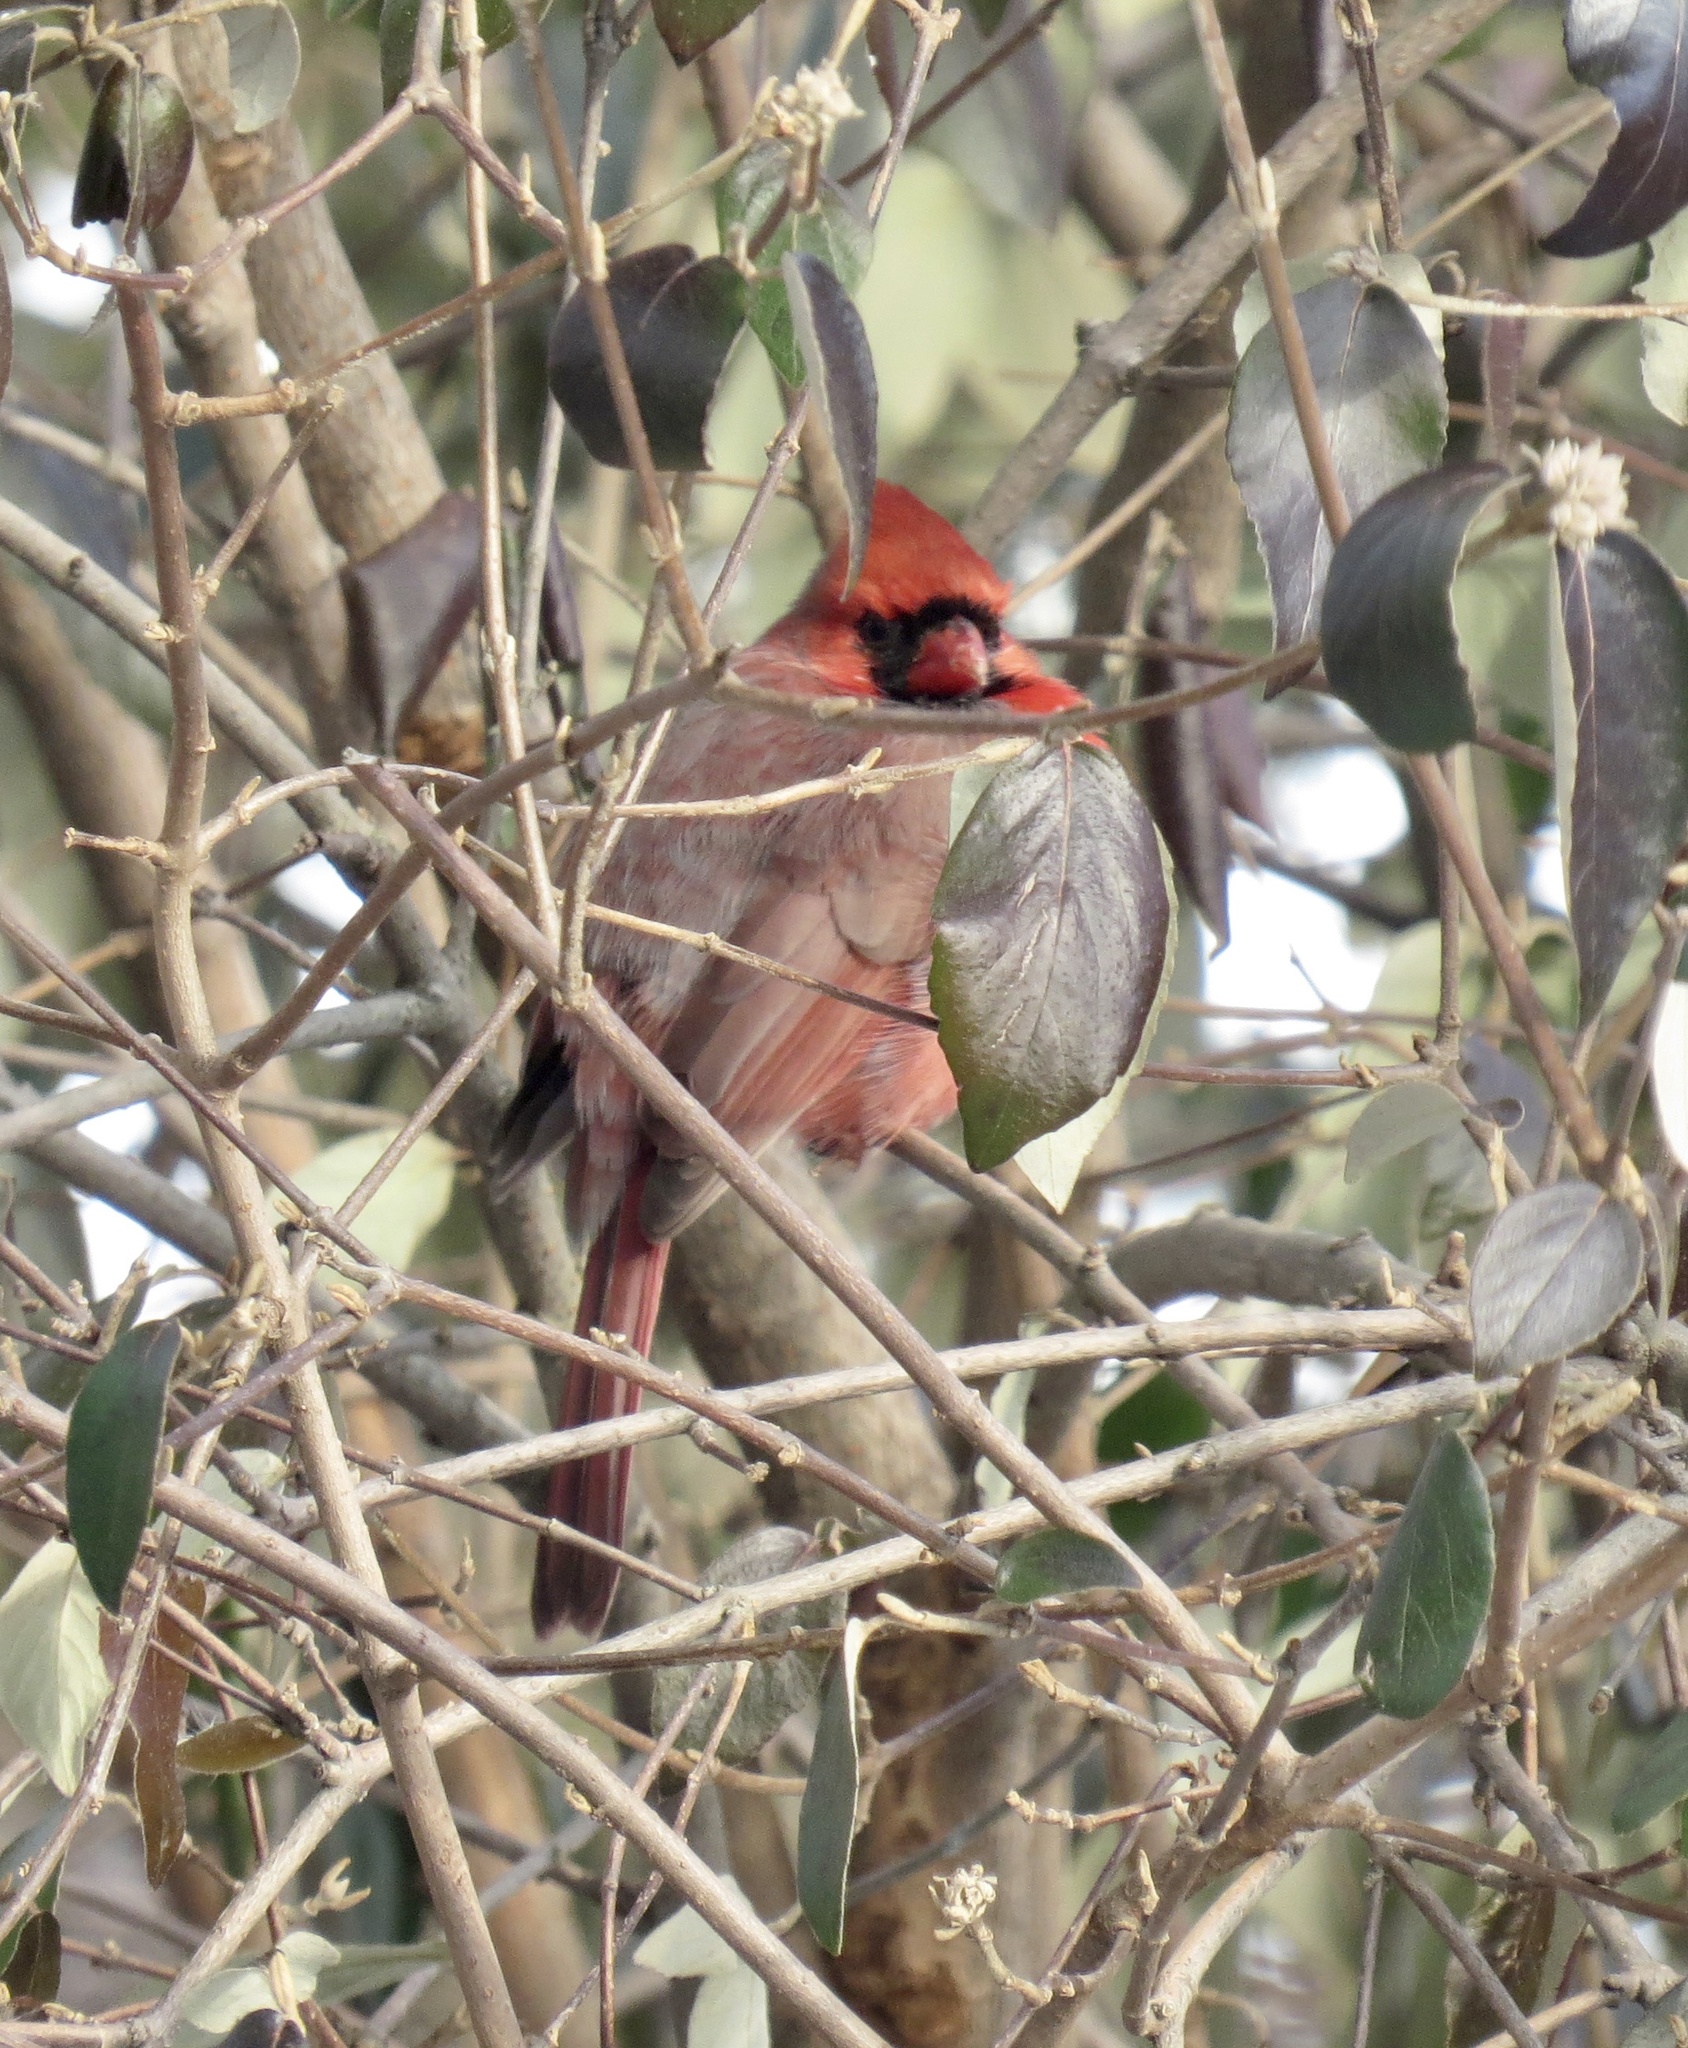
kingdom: Animalia
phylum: Chordata
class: Aves
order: Passeriformes
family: Cardinalidae
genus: Cardinalis
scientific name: Cardinalis cardinalis
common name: Northern cardinal
